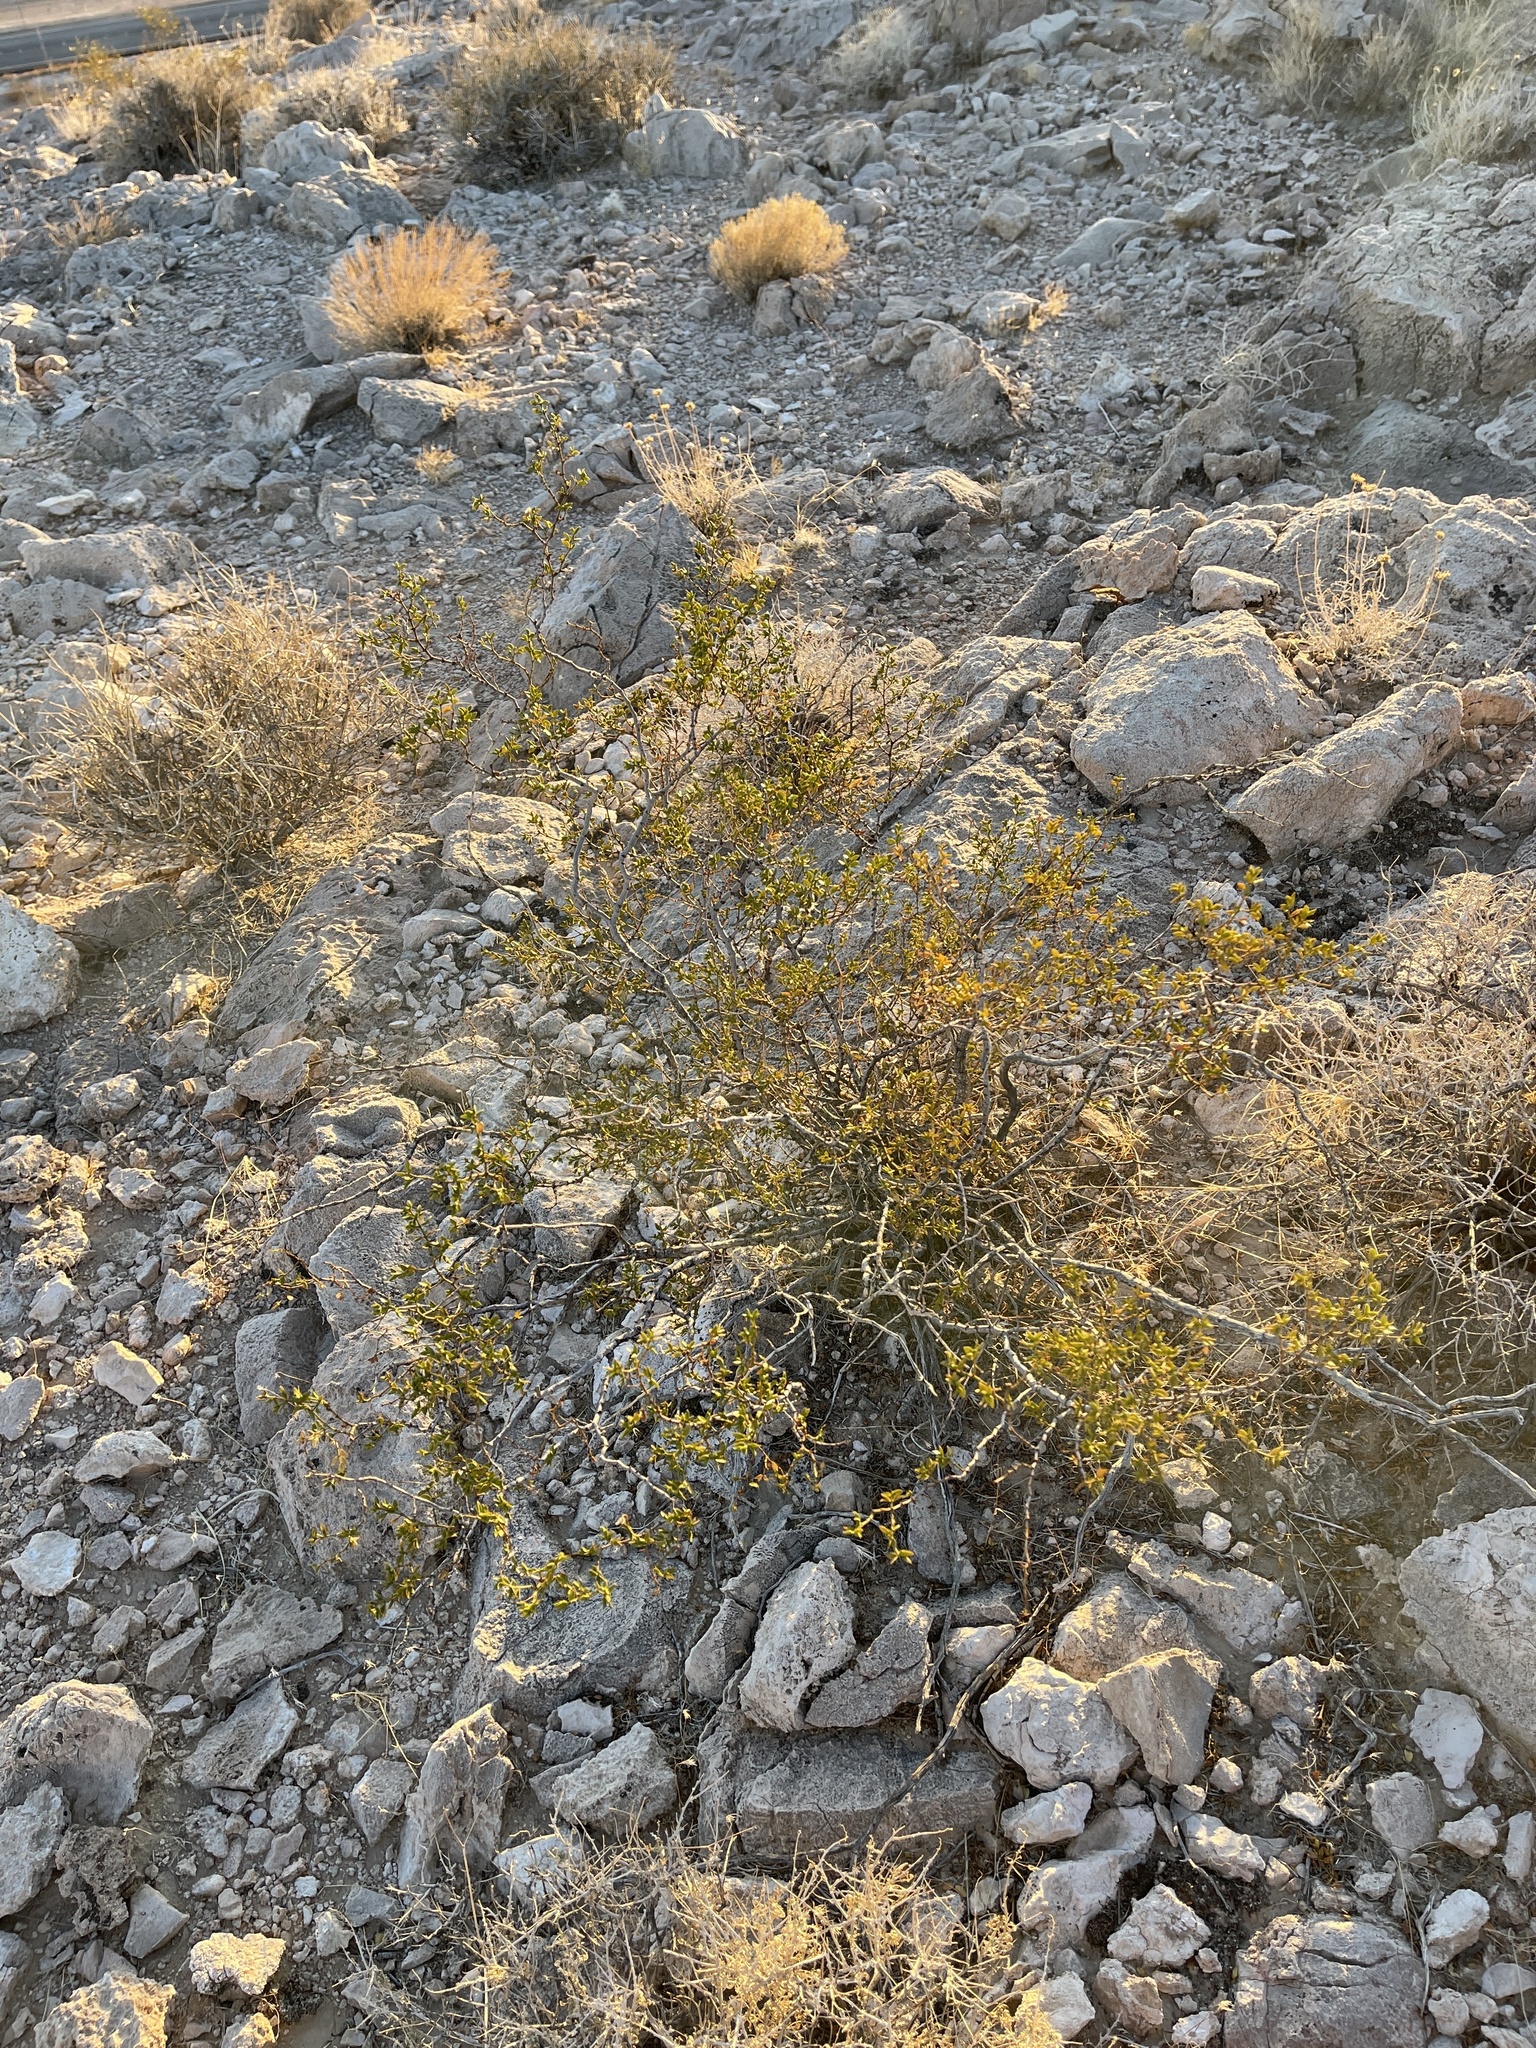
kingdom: Plantae
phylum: Tracheophyta
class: Magnoliopsida
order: Zygophyllales
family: Zygophyllaceae
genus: Larrea
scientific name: Larrea tridentata
